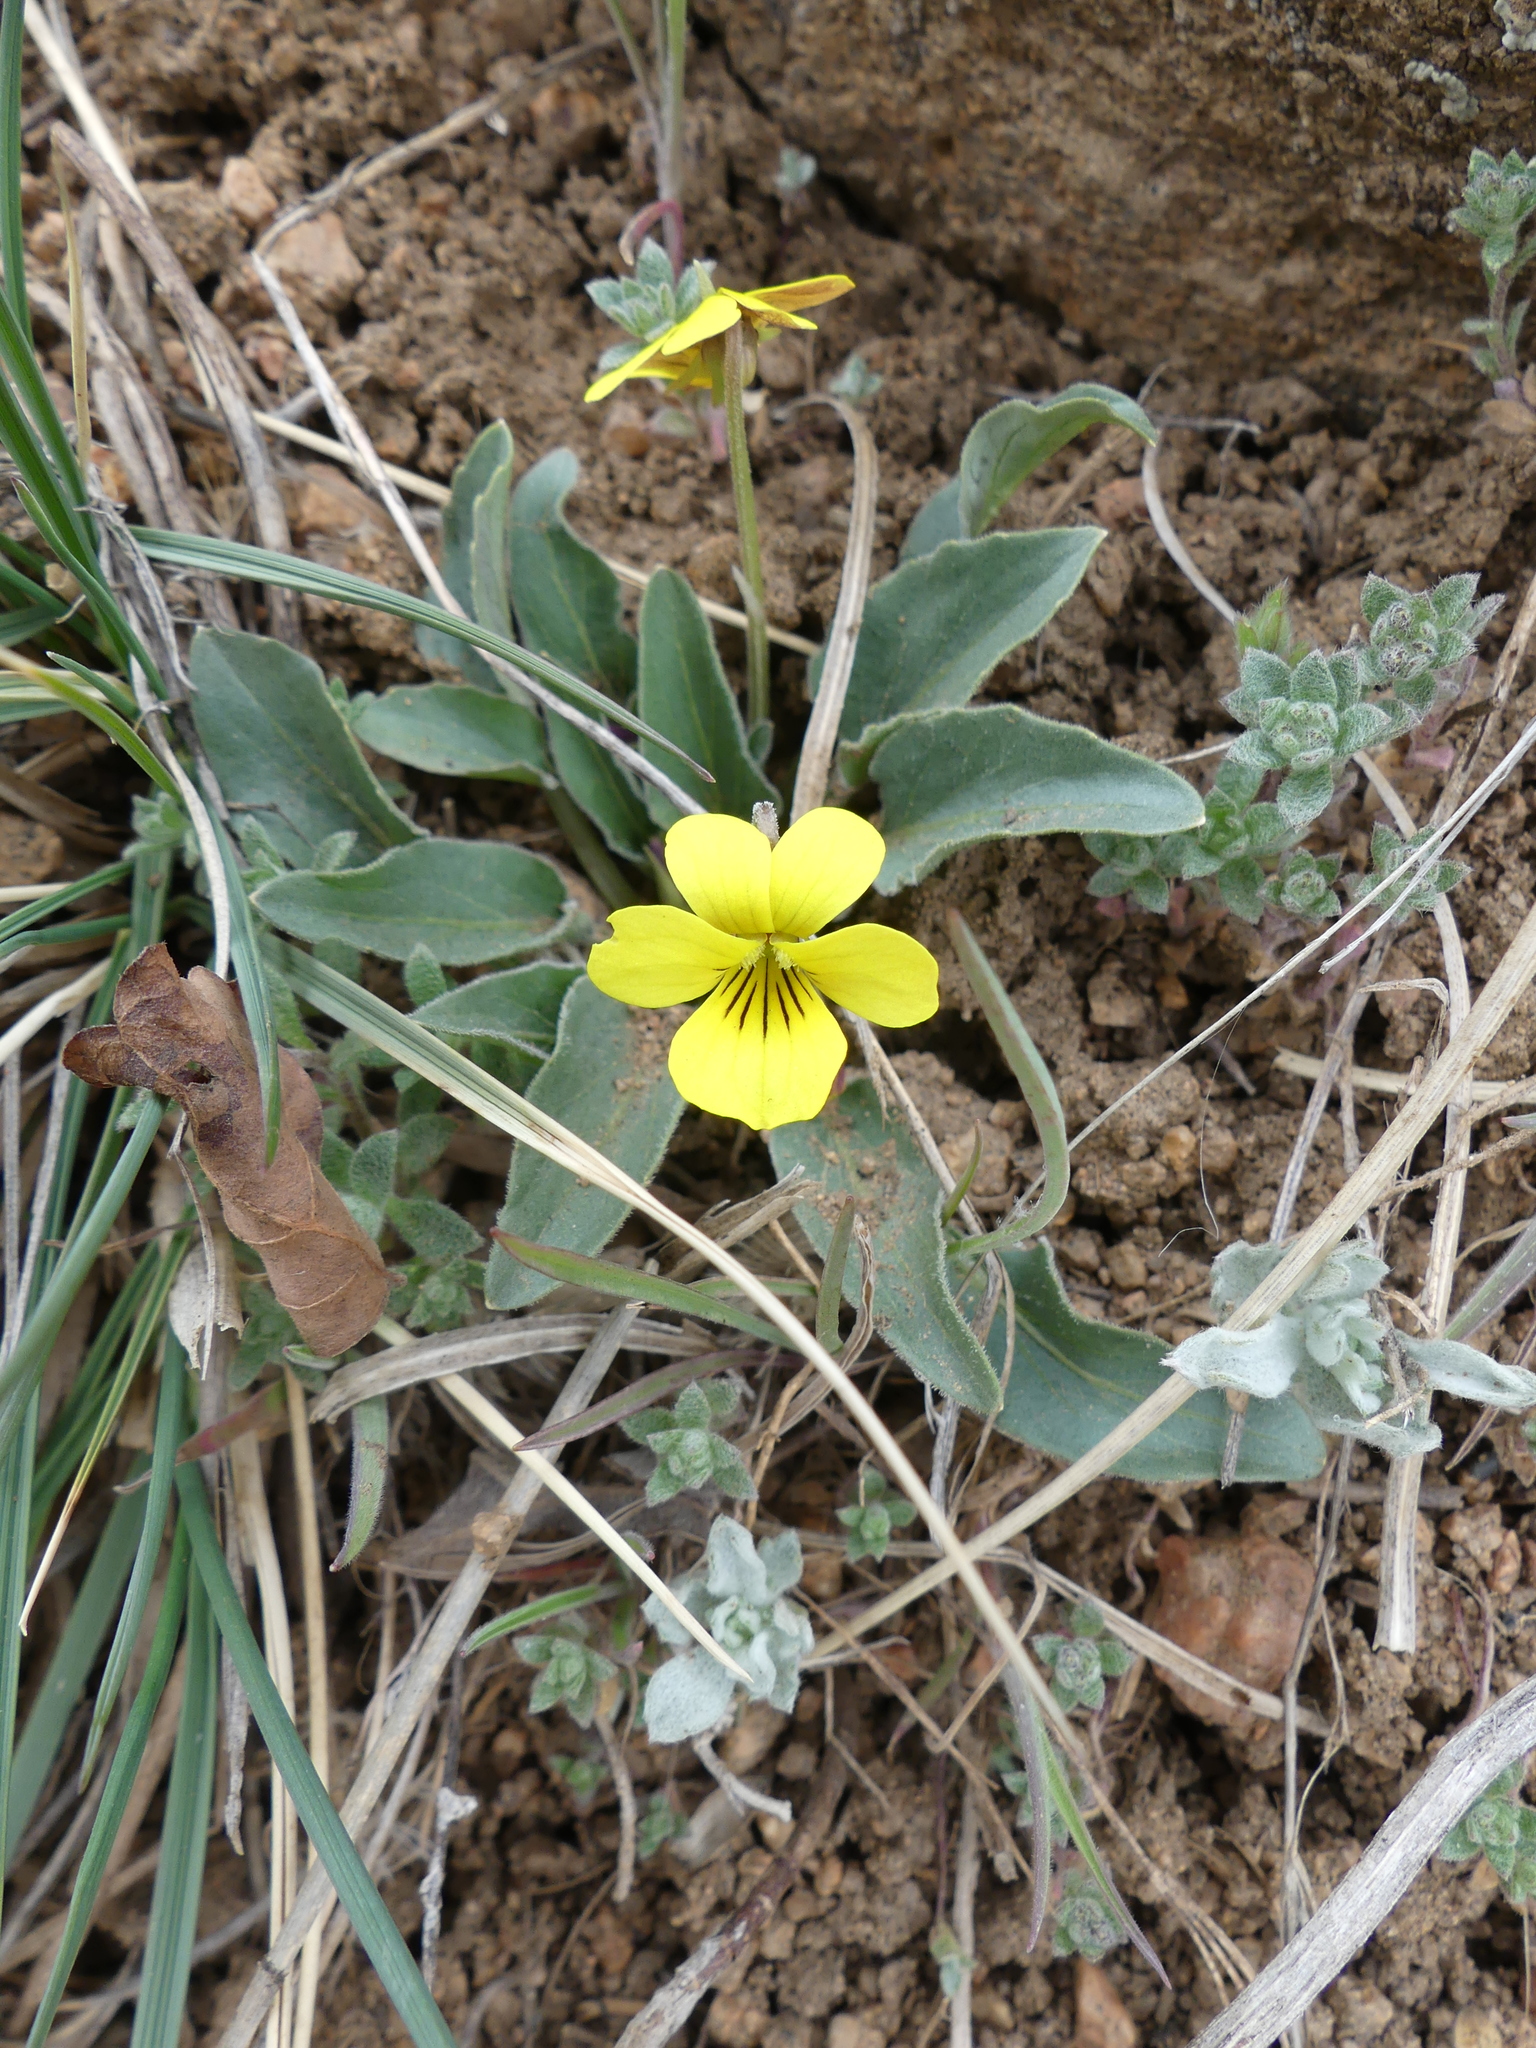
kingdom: Plantae
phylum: Tracheophyta
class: Magnoliopsida
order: Malpighiales
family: Violaceae
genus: Viola
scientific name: Viola nuttallii
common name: Yellow prairie violet
